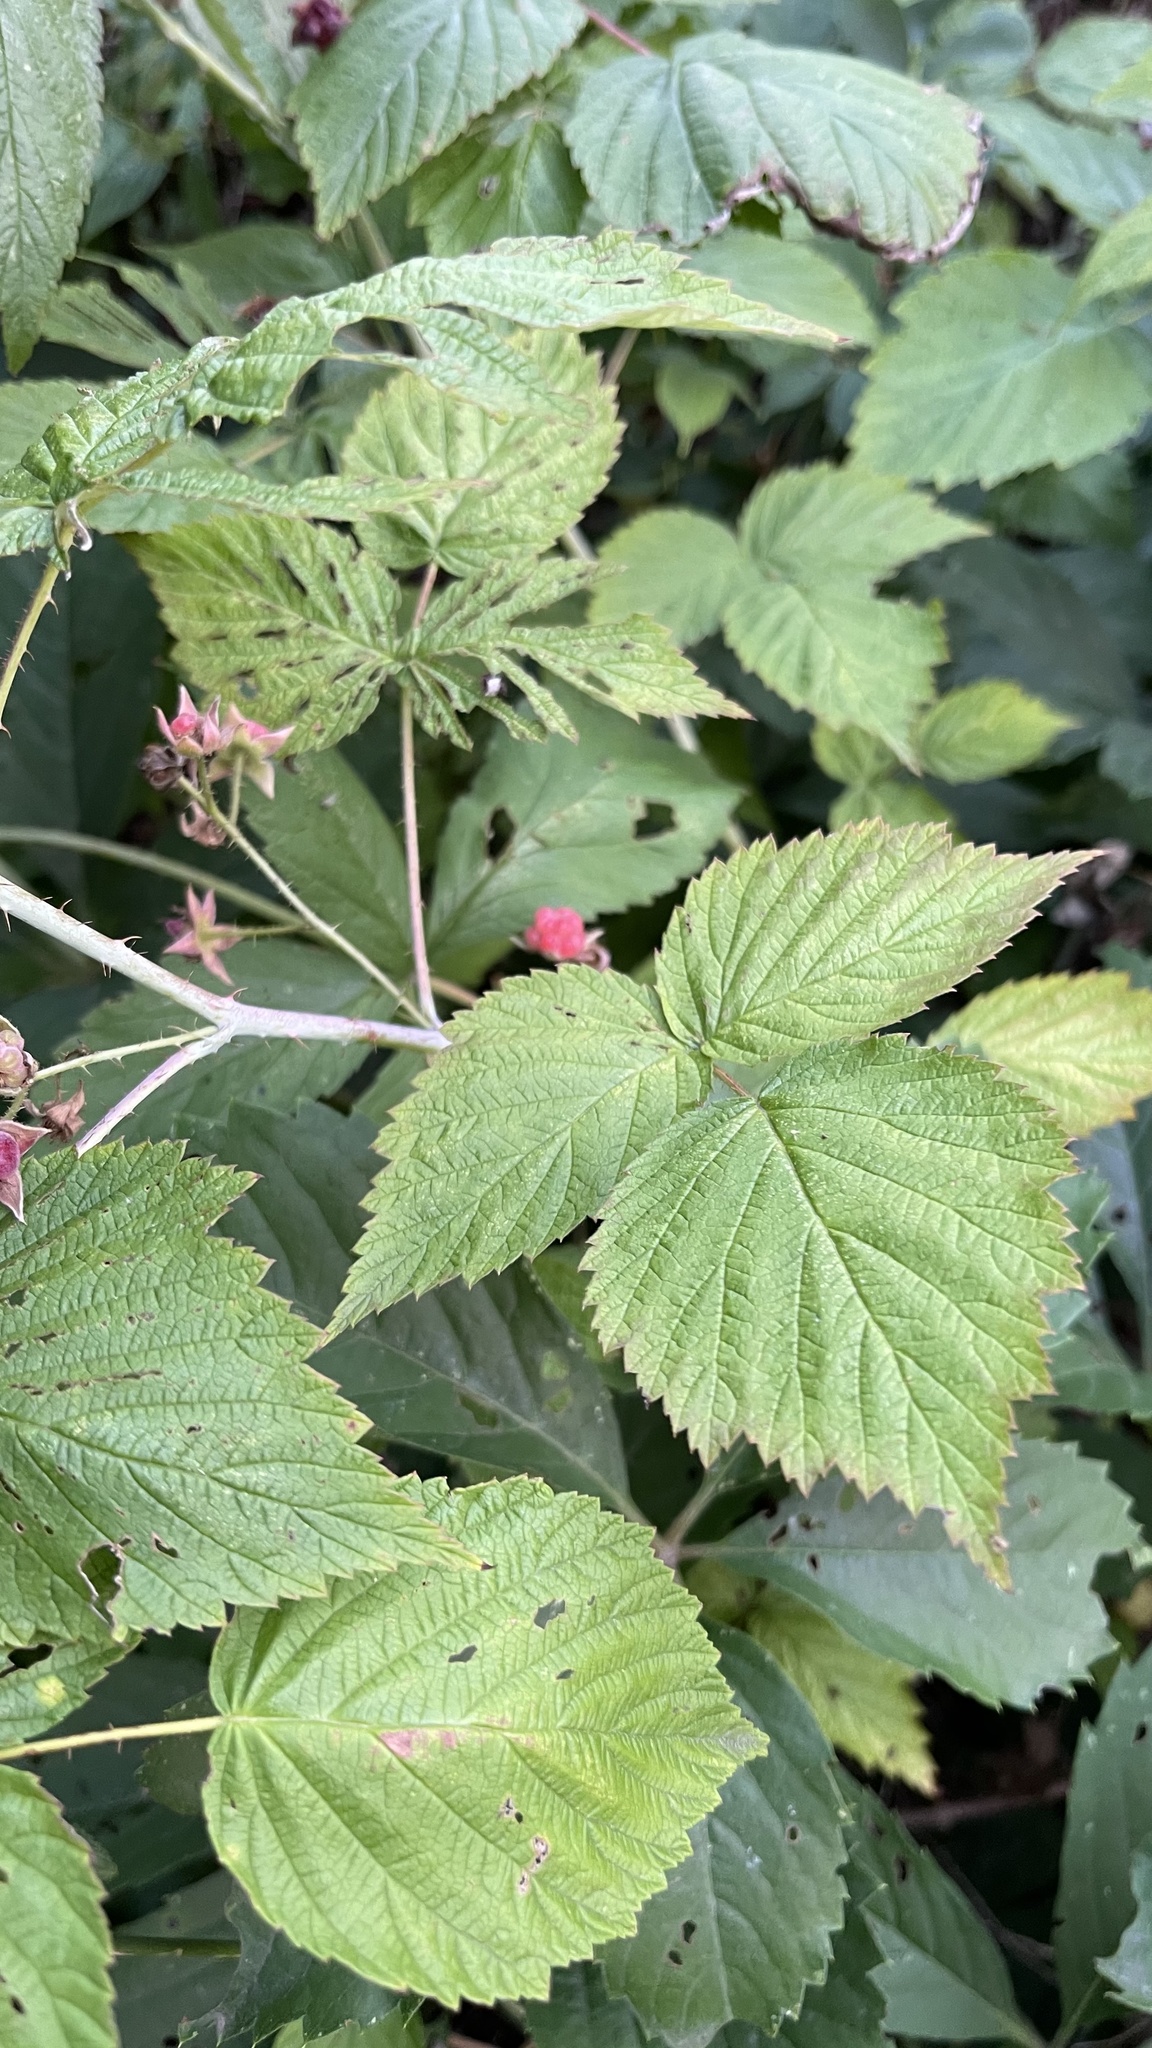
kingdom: Plantae
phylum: Tracheophyta
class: Magnoliopsida
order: Rosales
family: Rosaceae
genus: Rubus
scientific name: Rubus idaeus
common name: Raspberry
